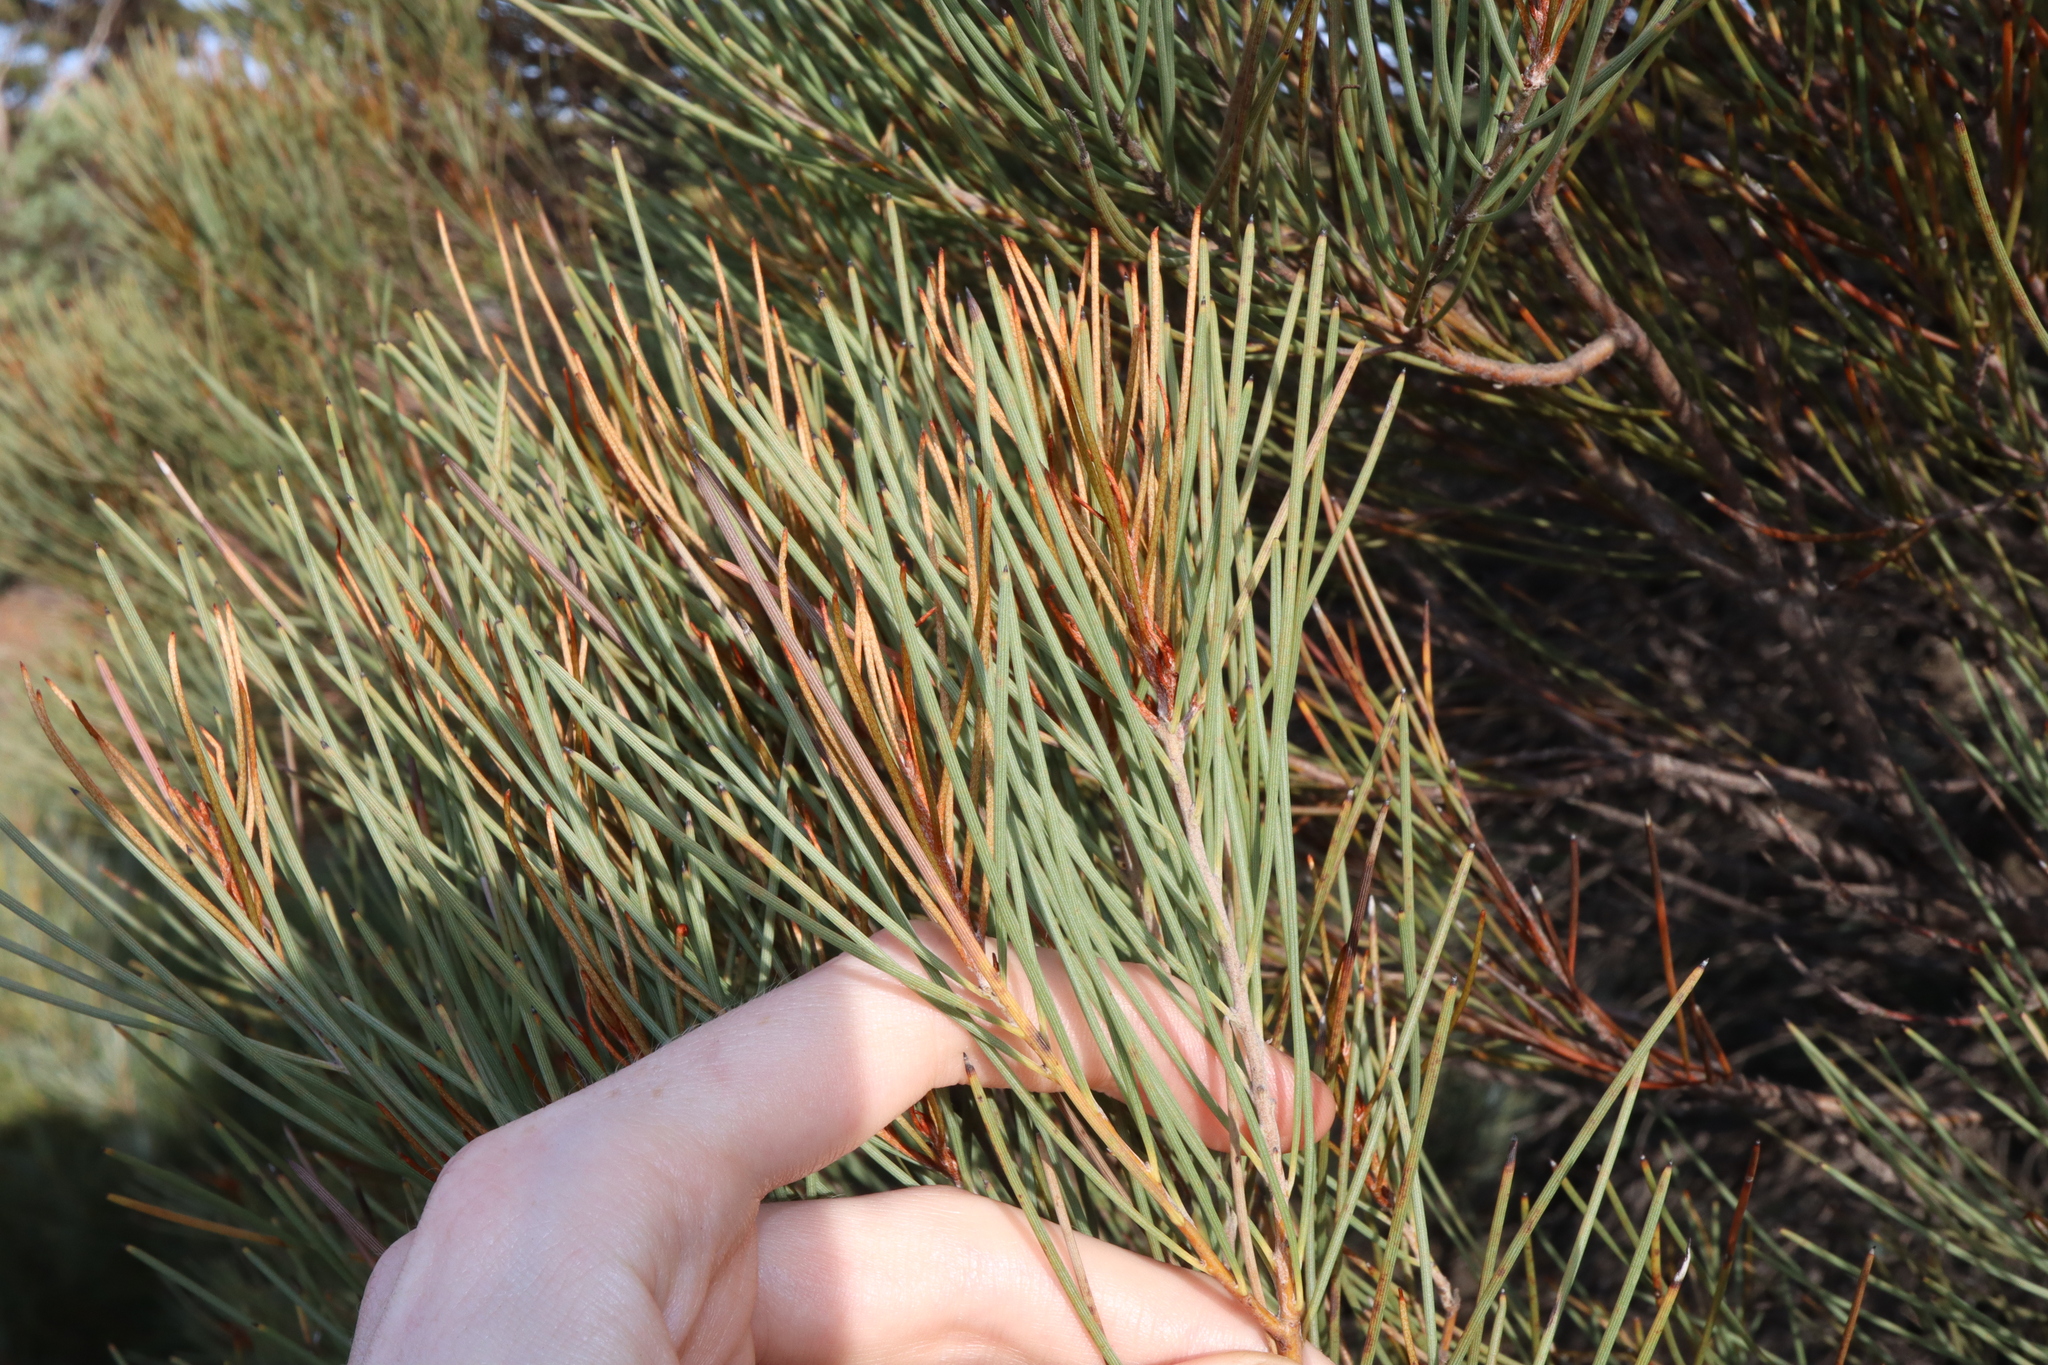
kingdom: Plantae
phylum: Tracheophyta
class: Magnoliopsida
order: Proteales
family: Proteaceae
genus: Hakea
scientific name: Hakea subsulcata
